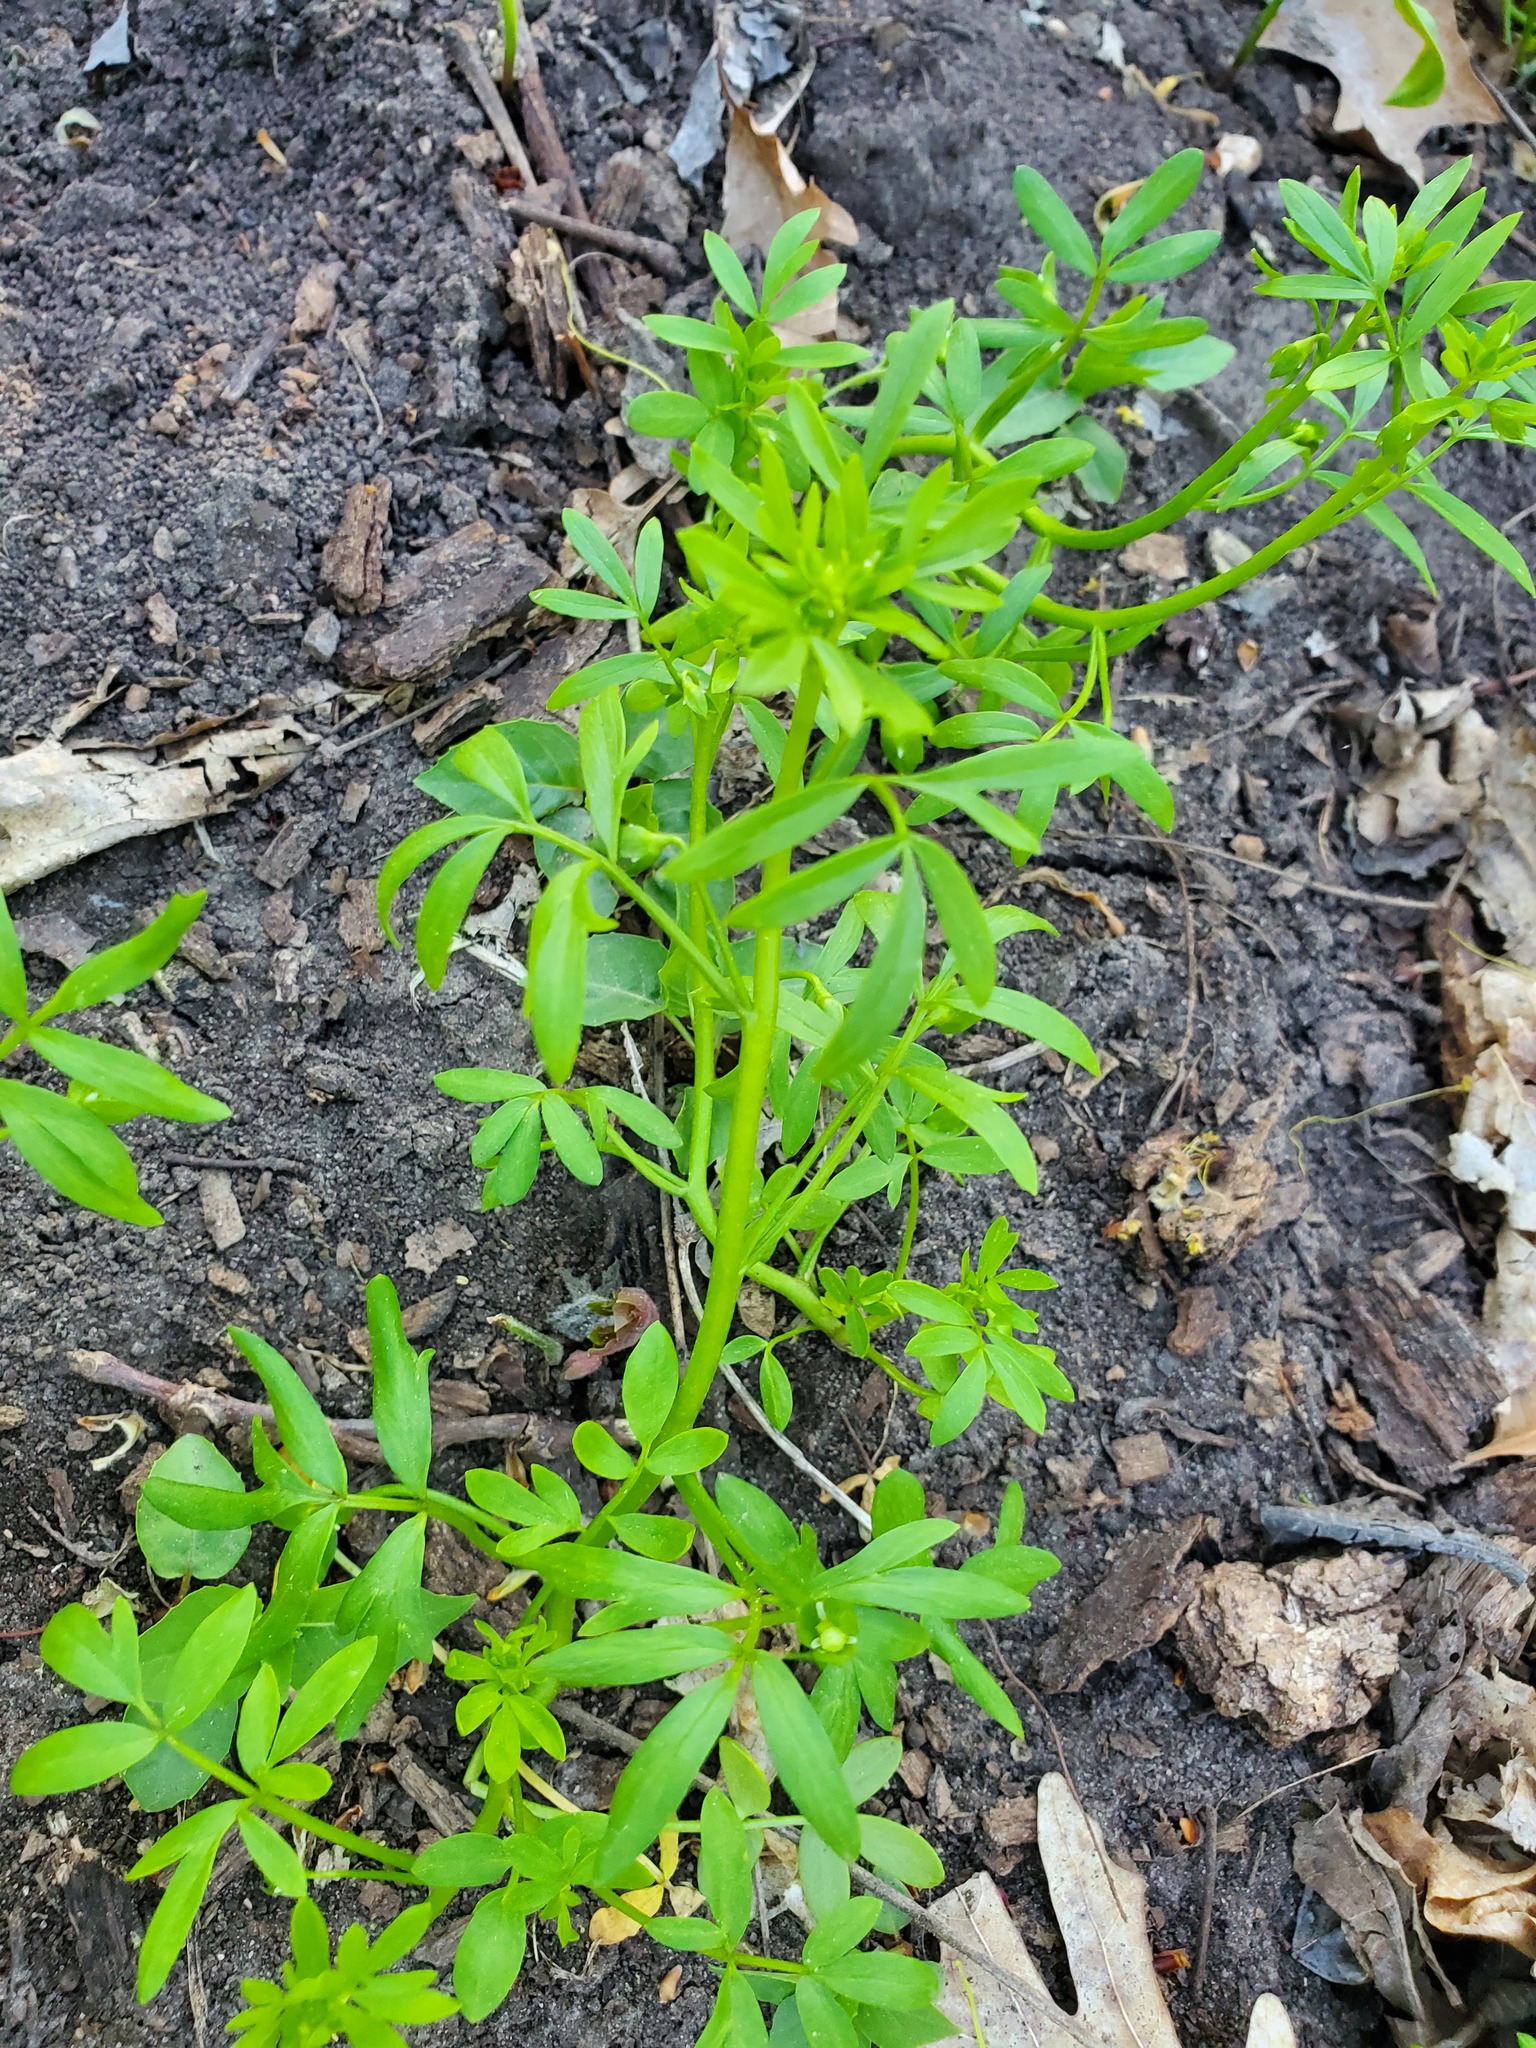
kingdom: Plantae
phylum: Tracheophyta
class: Magnoliopsida
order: Brassicales
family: Limnanthaceae
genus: Floerkea
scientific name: Floerkea proserpinacoides
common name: False mermaid
